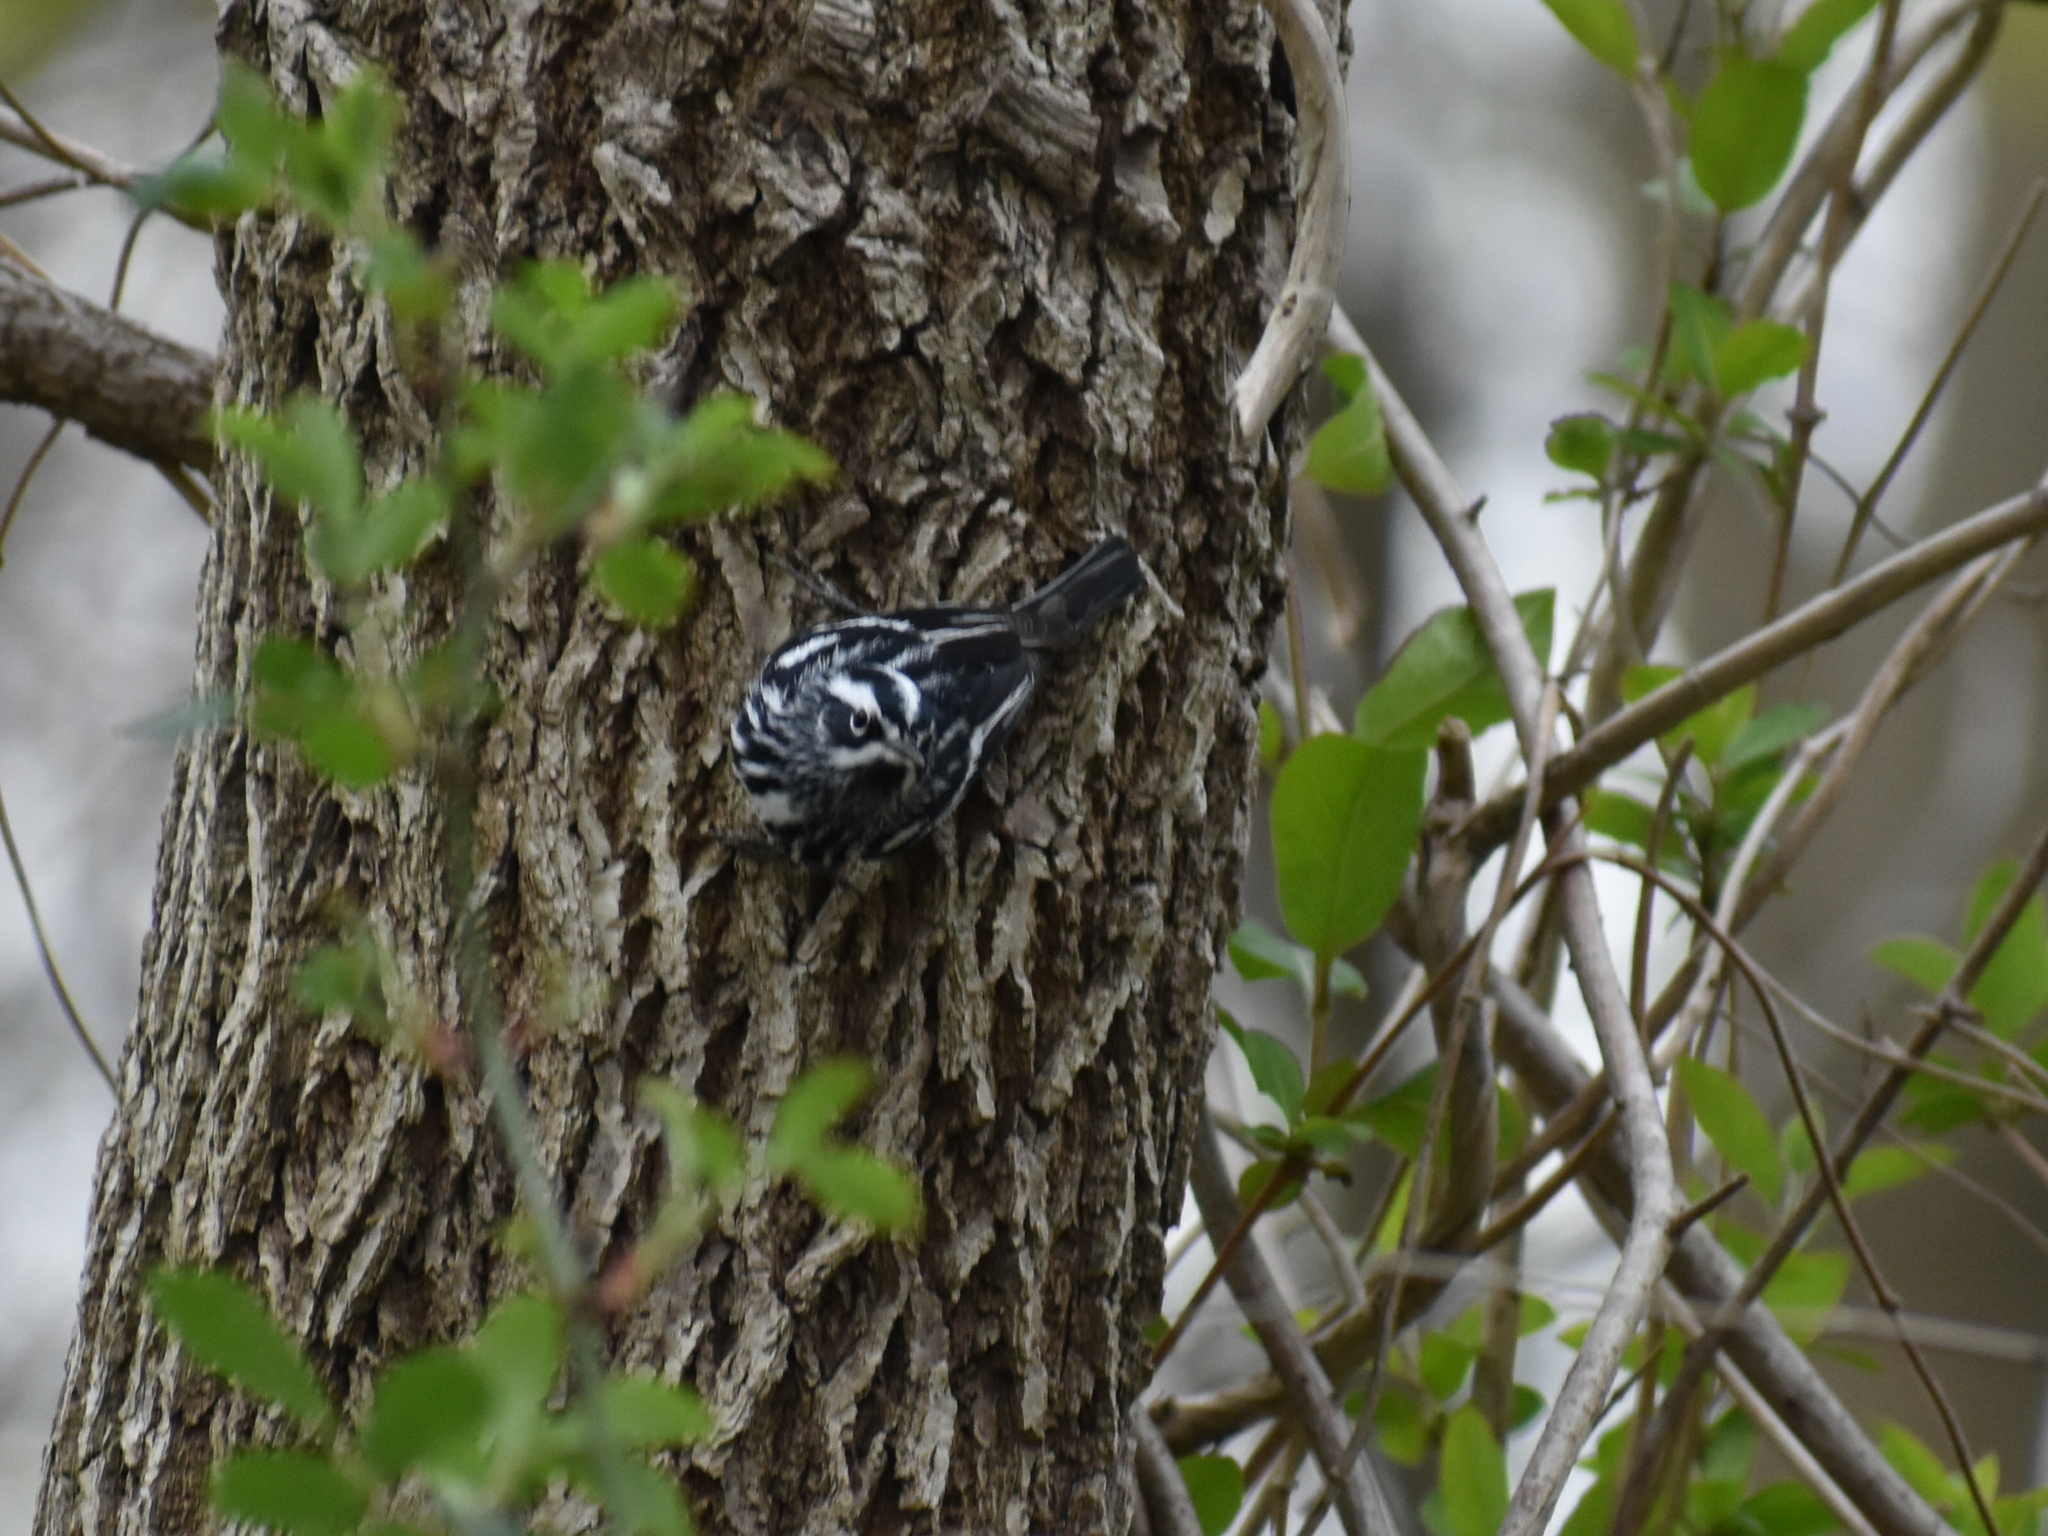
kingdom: Animalia
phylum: Chordata
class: Aves
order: Passeriformes
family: Parulidae
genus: Mniotilta
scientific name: Mniotilta varia
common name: Black-and-white warbler
